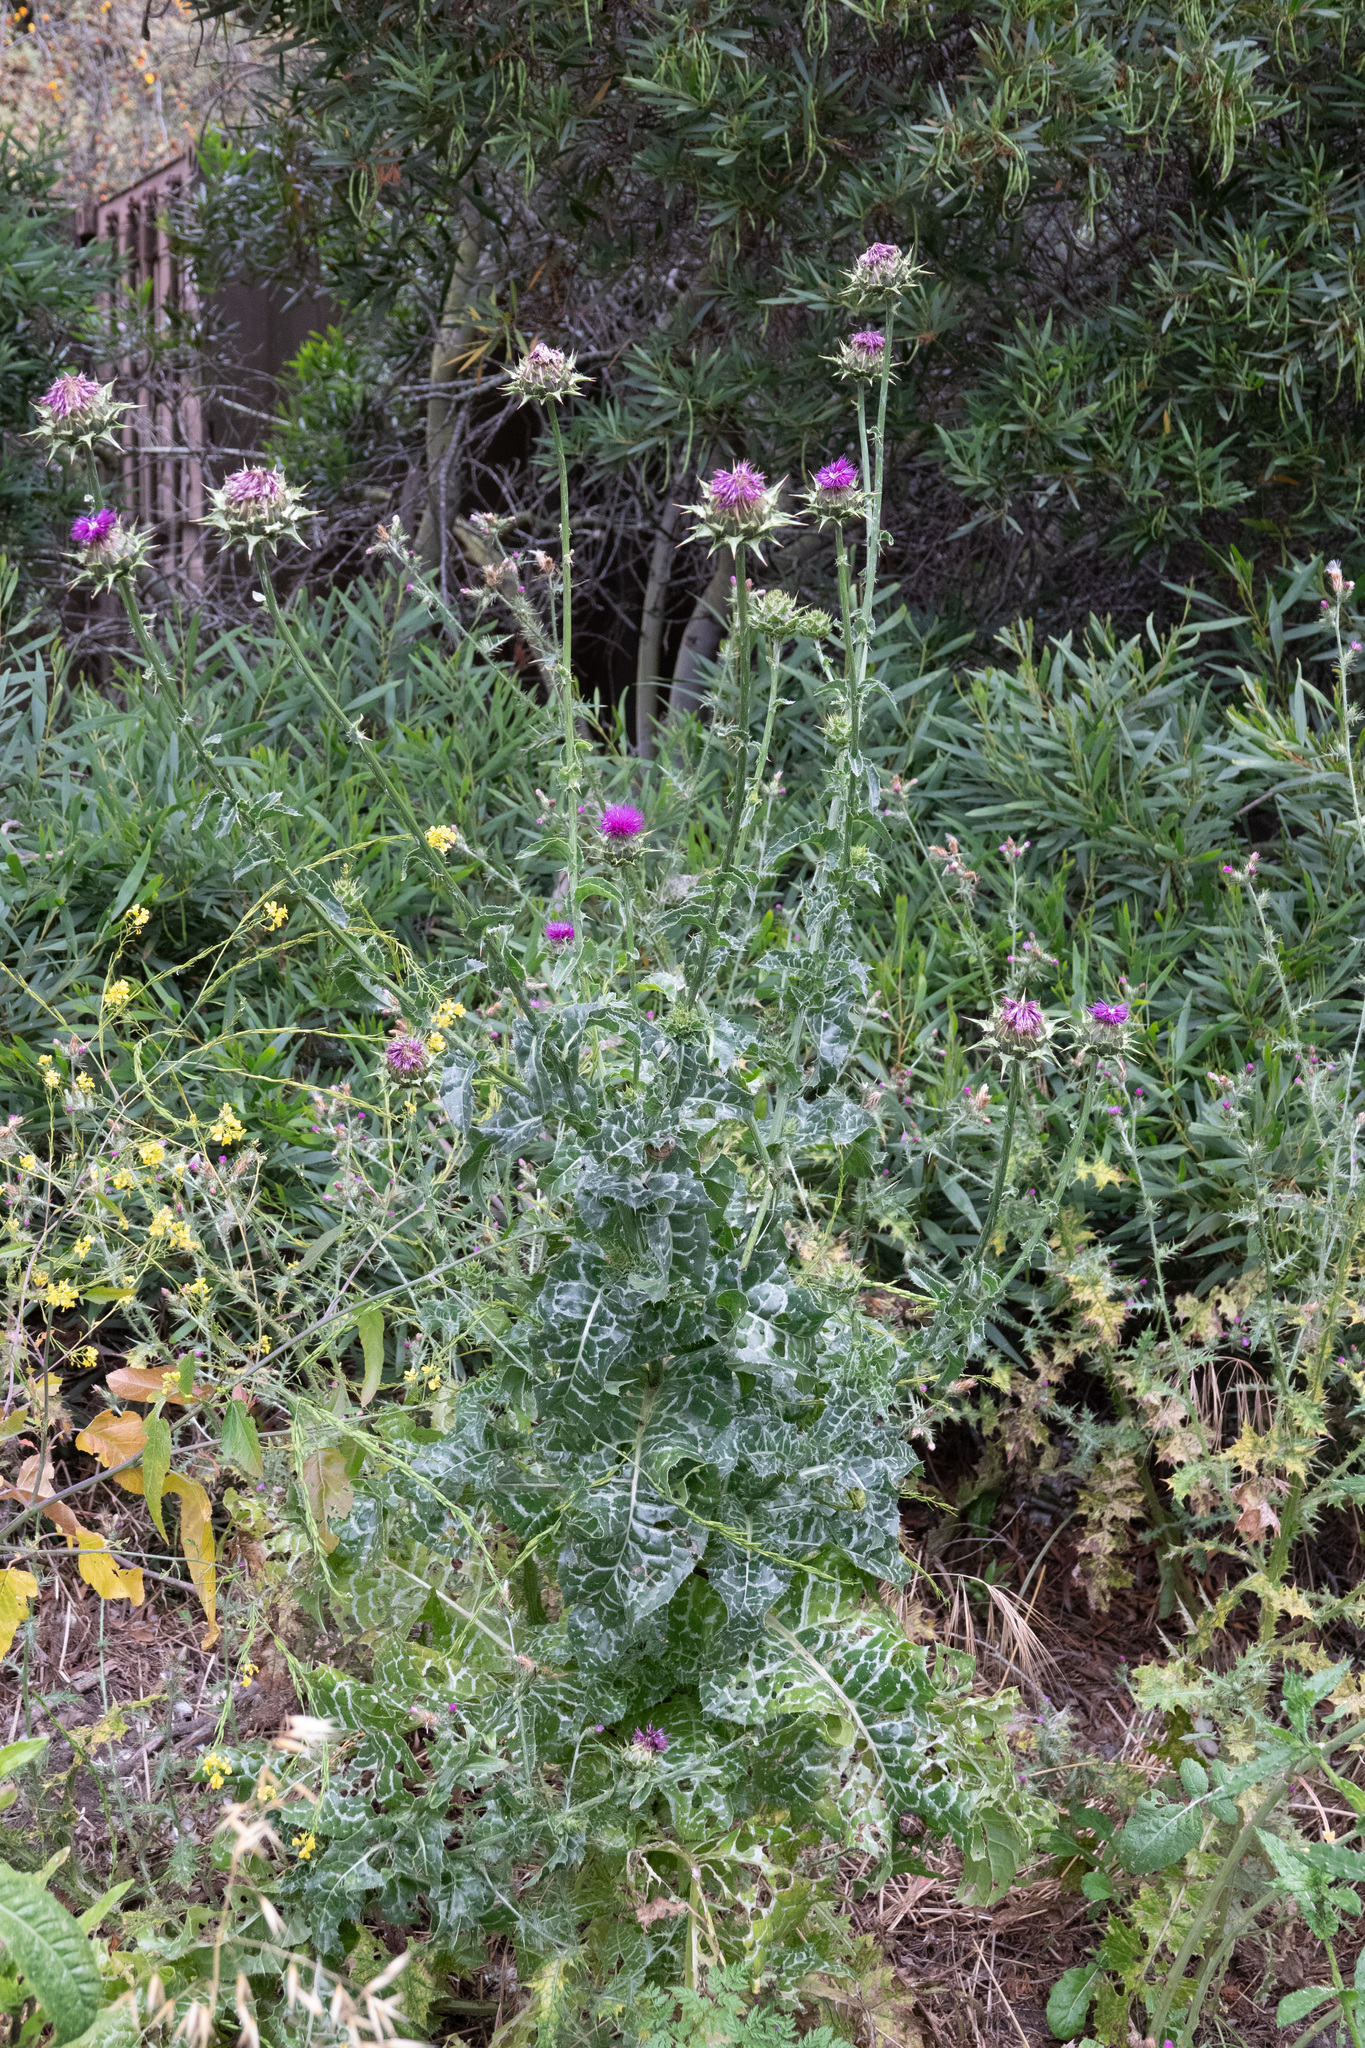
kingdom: Plantae
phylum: Tracheophyta
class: Magnoliopsida
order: Asterales
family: Asteraceae
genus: Silybum
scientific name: Silybum marianum
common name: Milk thistle
